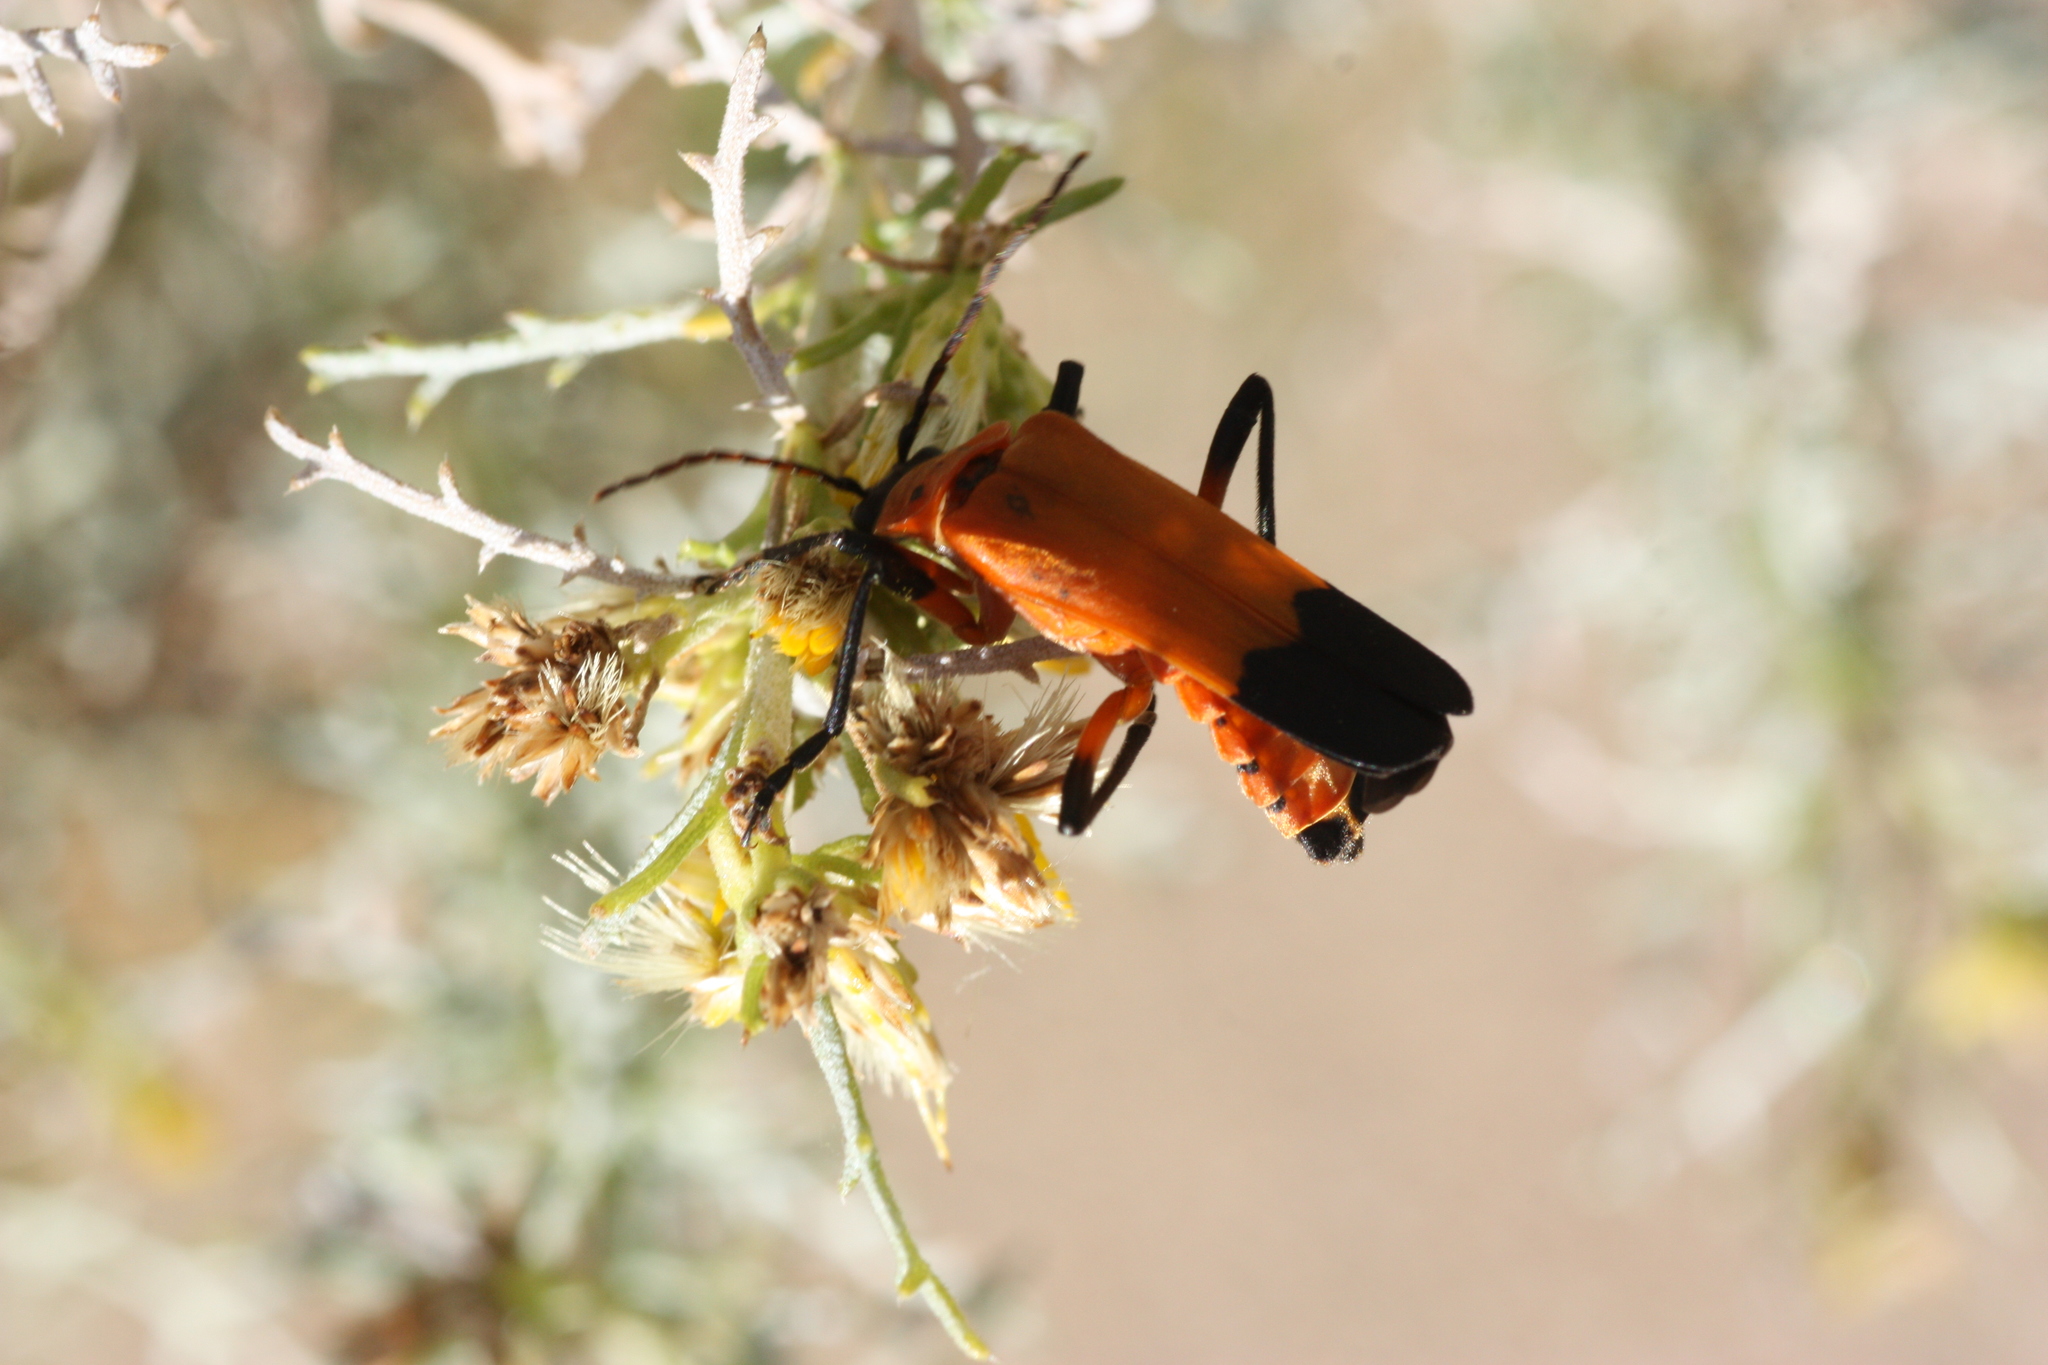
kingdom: Animalia
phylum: Arthropoda
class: Insecta
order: Coleoptera
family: Cantharidae
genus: Chauliognathus
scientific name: Chauliognathus profundus
